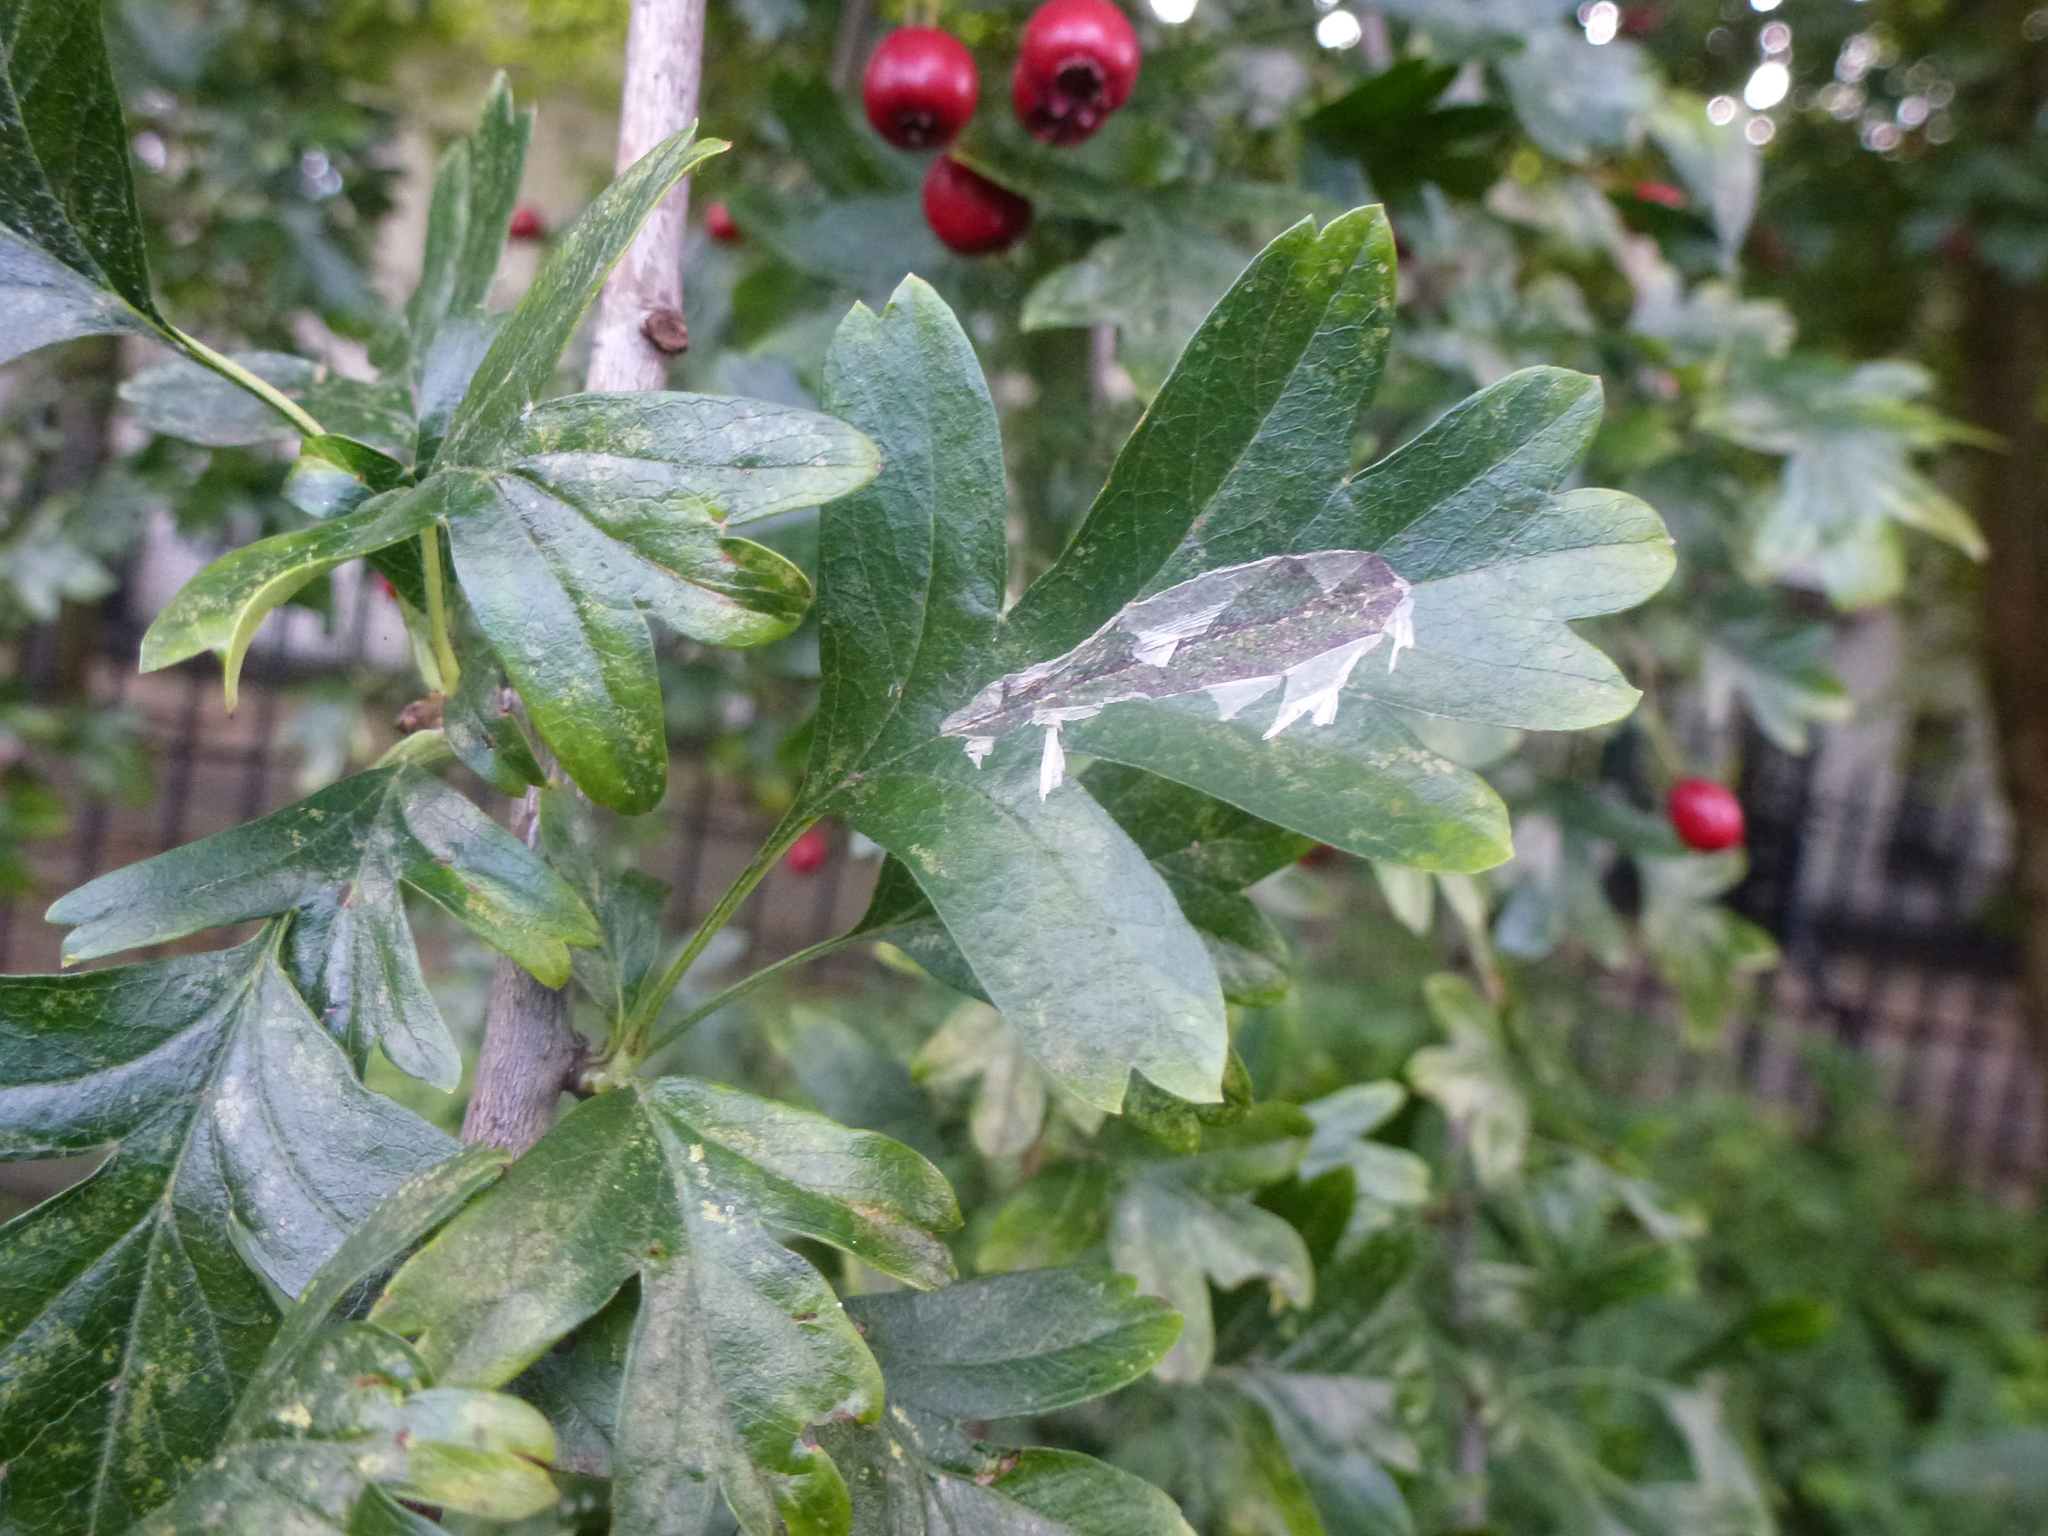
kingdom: Animalia
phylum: Arthropoda
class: Insecta
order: Lepidoptera
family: Gracillariidae
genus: Phyllonorycter
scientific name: Phyllonorycter leucographella
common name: Firethorn leaf-miner
